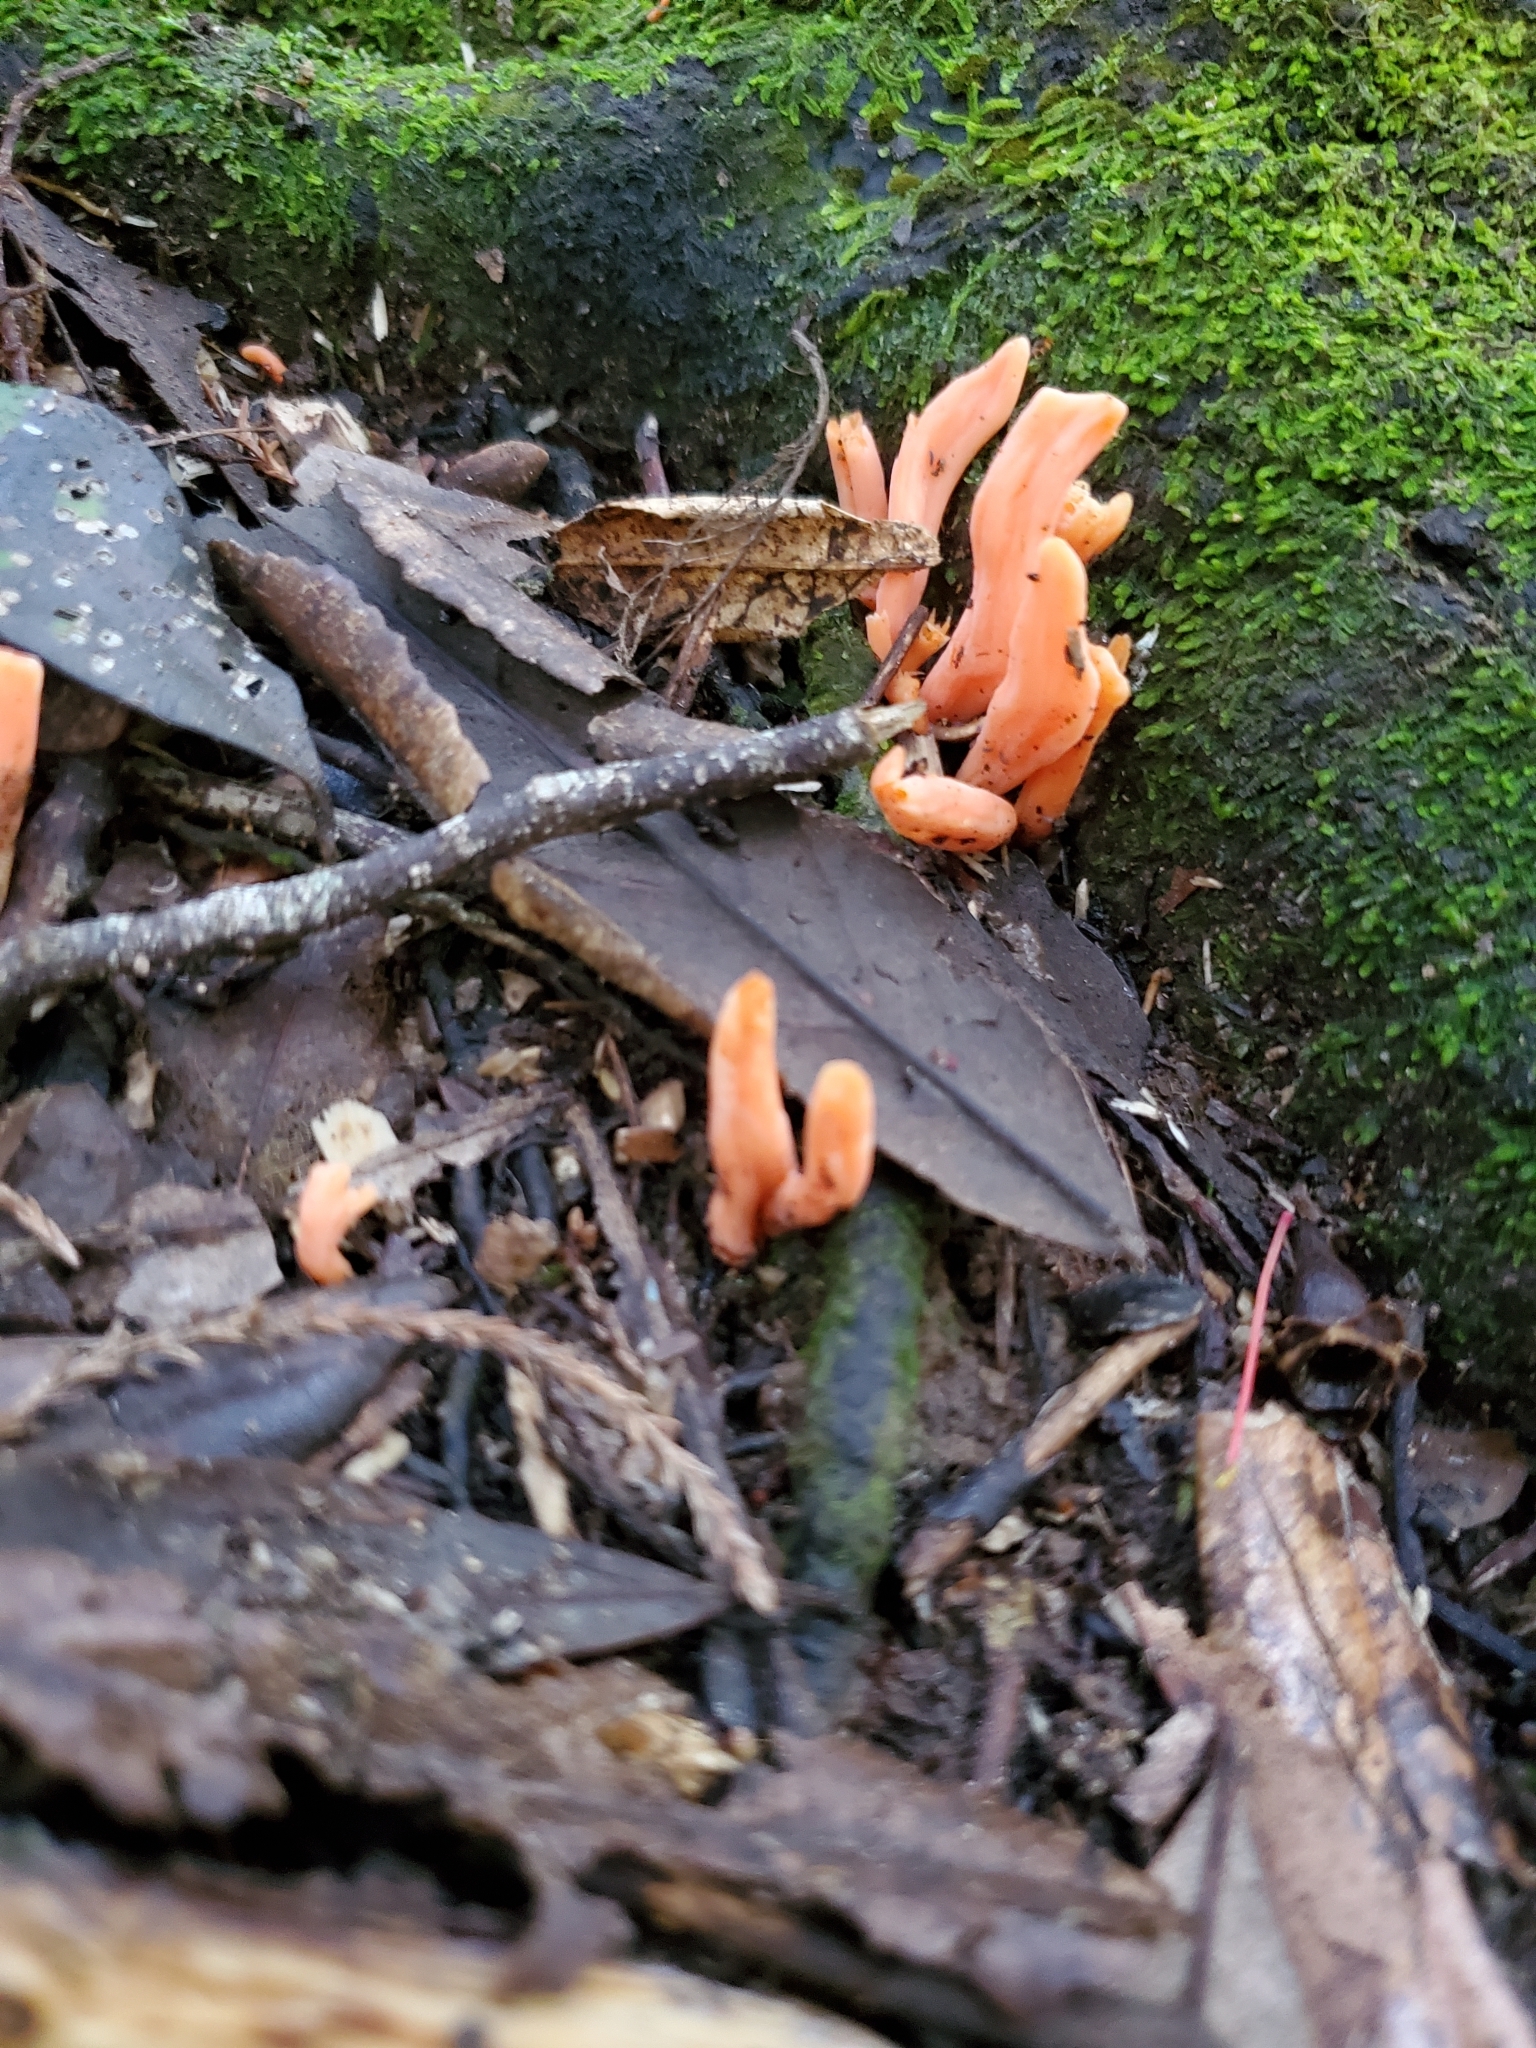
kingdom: Fungi
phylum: Basidiomycota
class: Agaricomycetes
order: Agaricales
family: Clavariaceae
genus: Clavulinopsis
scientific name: Clavulinopsis sulcata
